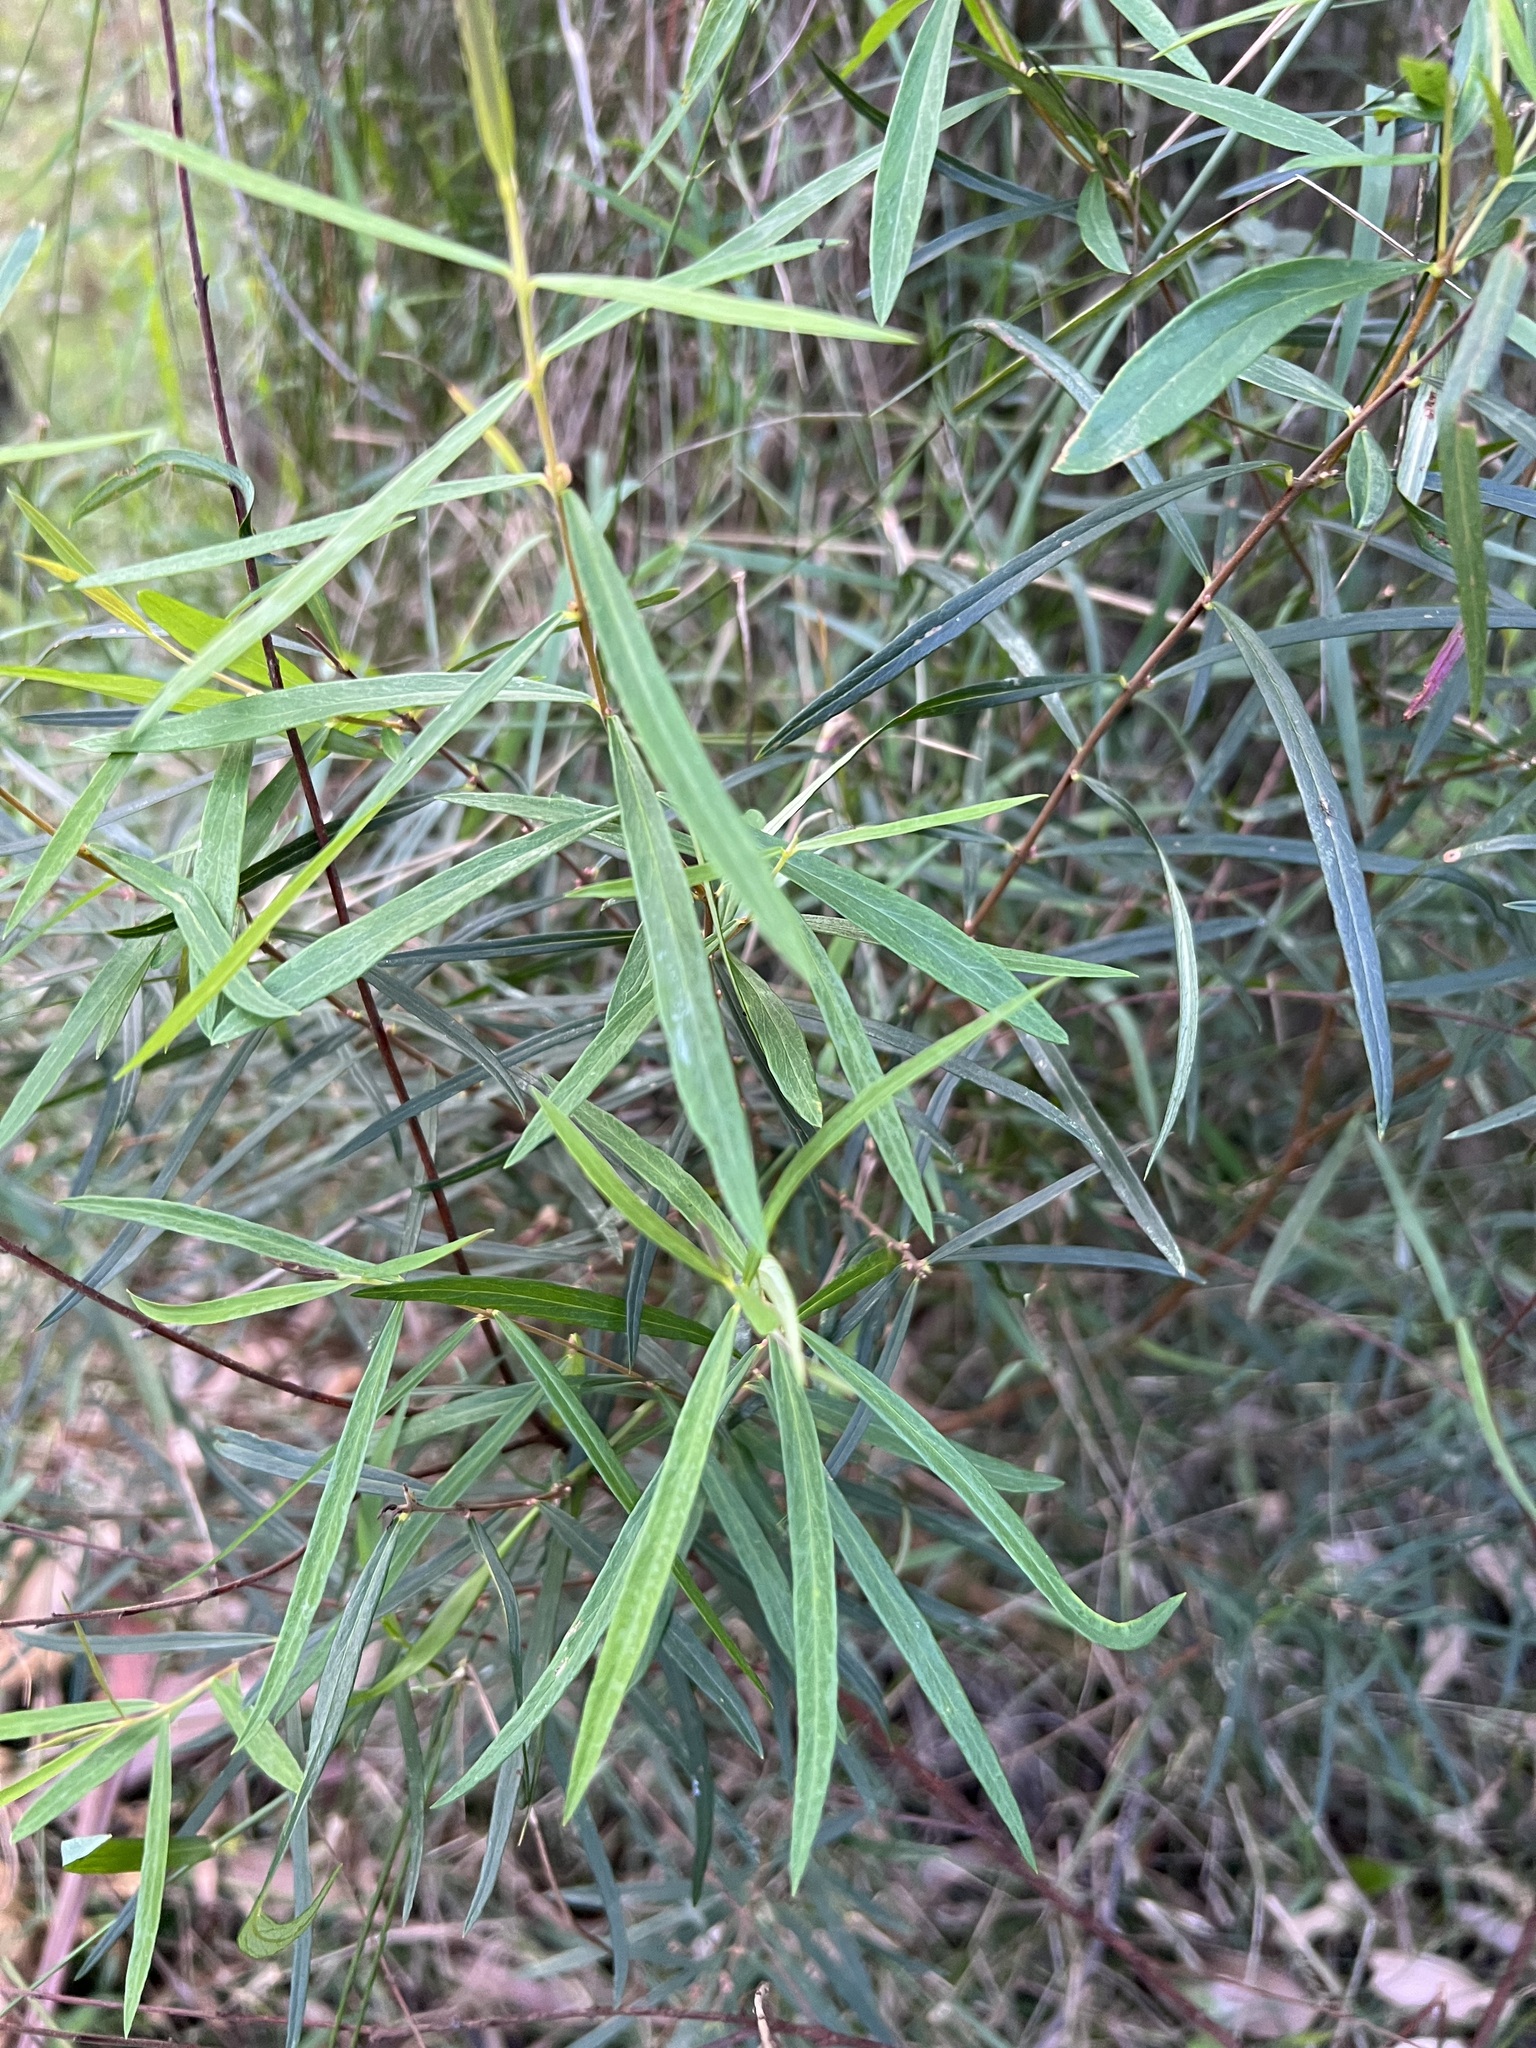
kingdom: Plantae
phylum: Tracheophyta
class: Magnoliopsida
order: Malvales
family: Thymelaeaceae
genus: Pimelea
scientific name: Pimelea axiflora
